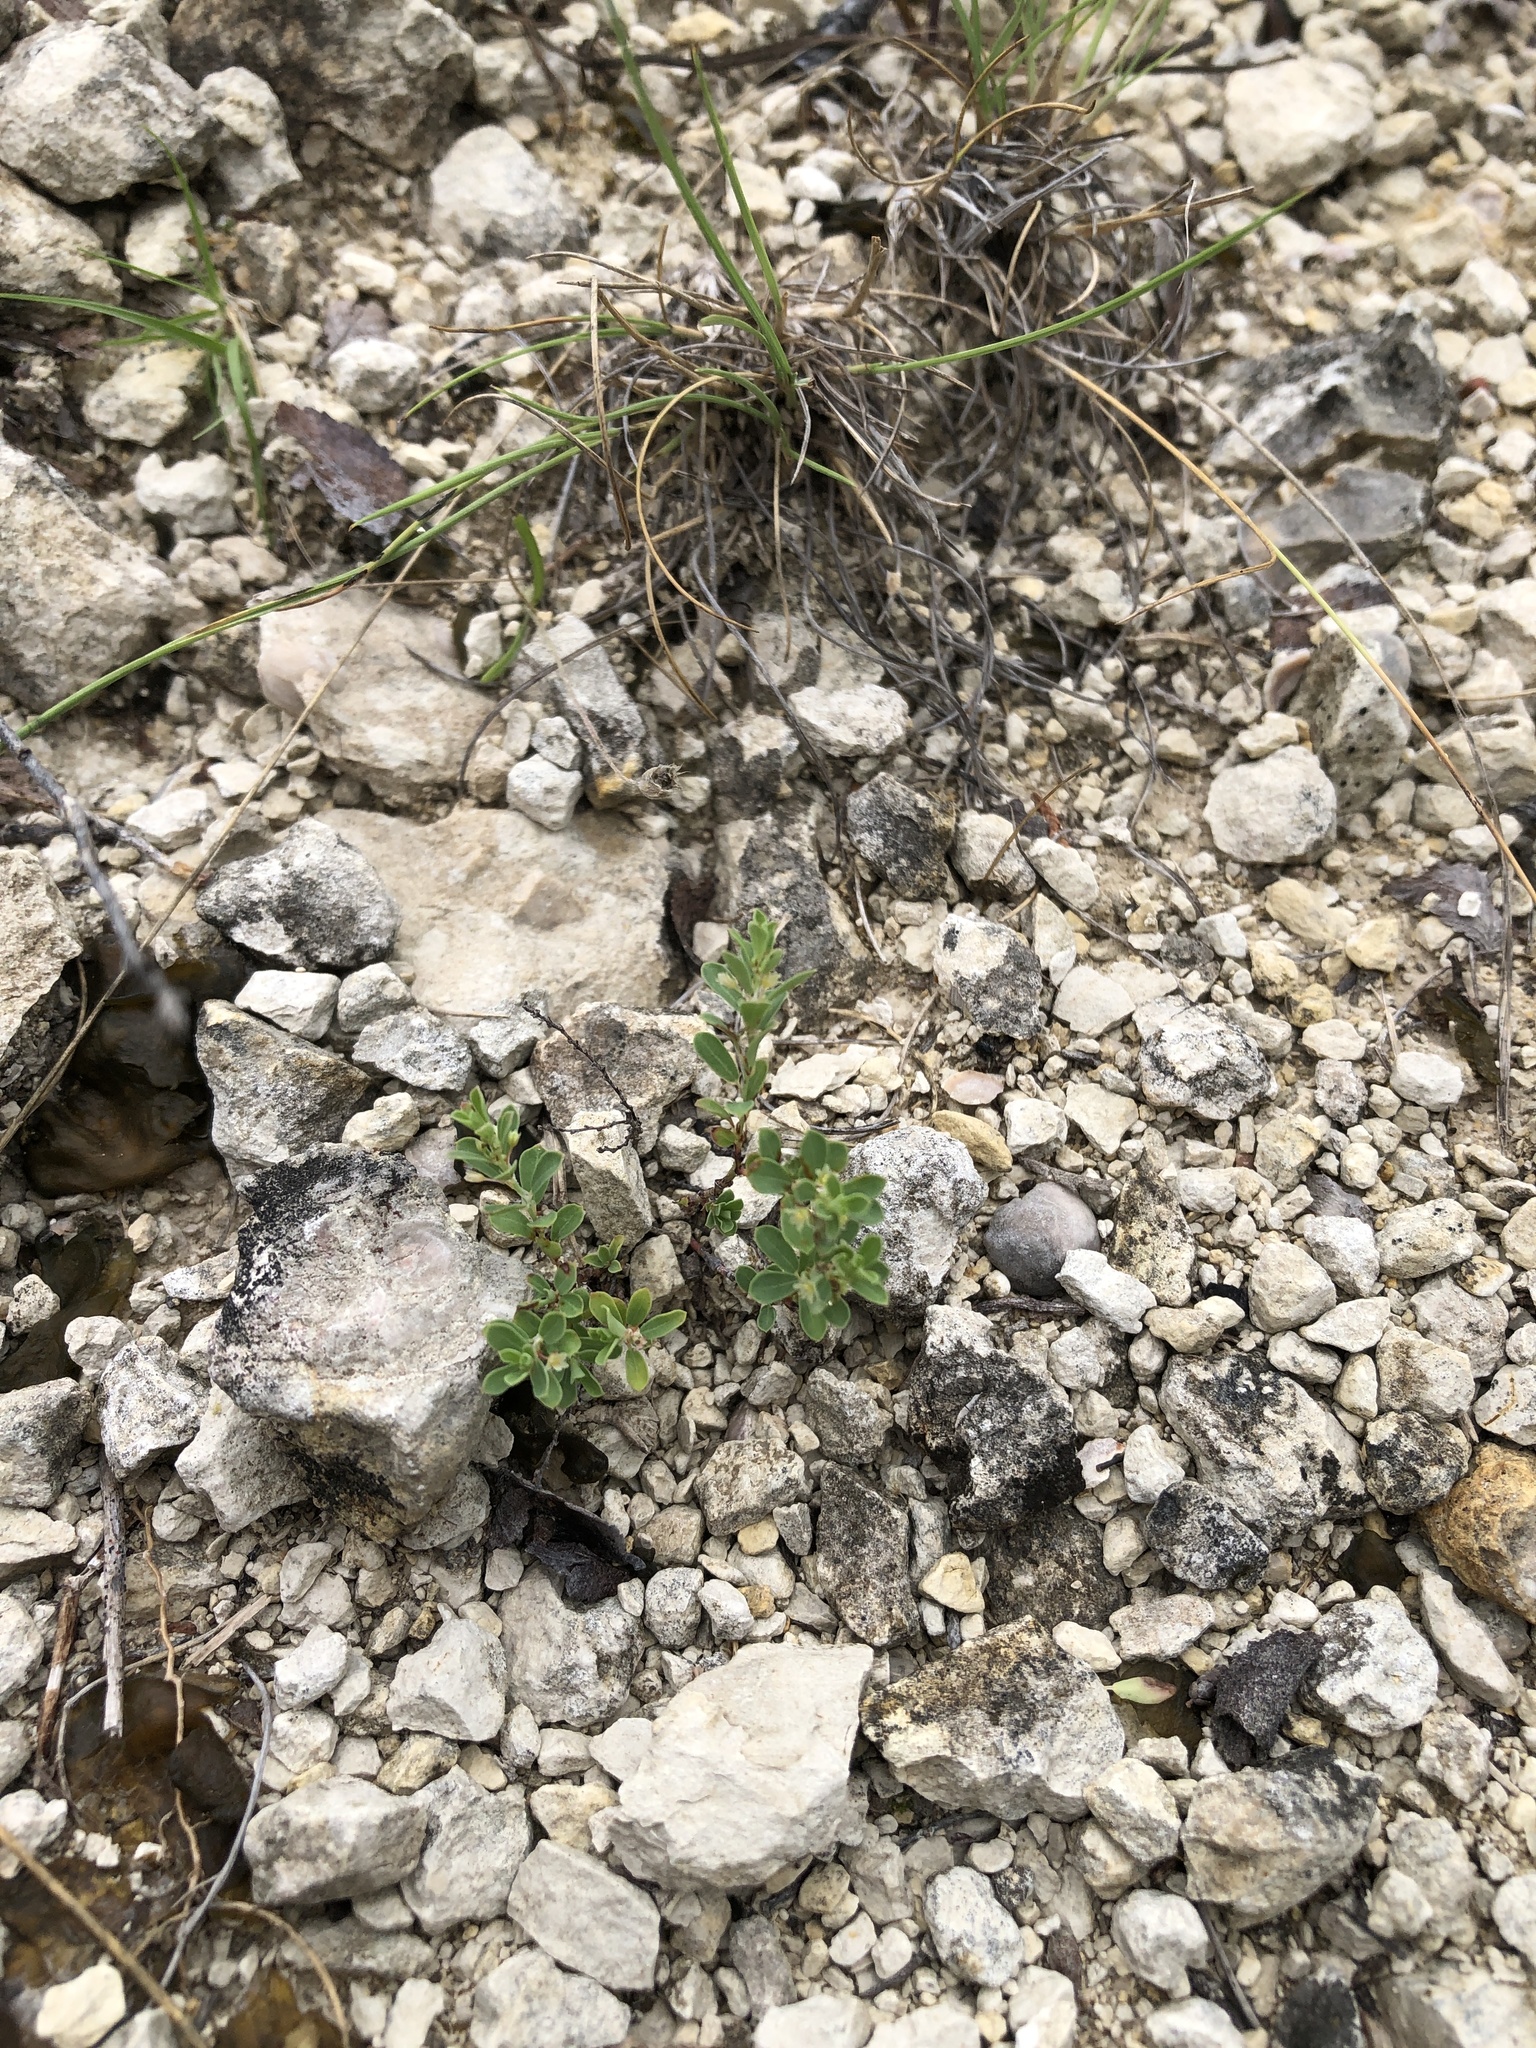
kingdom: Plantae
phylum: Tracheophyta
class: Magnoliopsida
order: Malpighiales
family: Phyllanthaceae
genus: Phyllanthus
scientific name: Phyllanthus polygonoides
